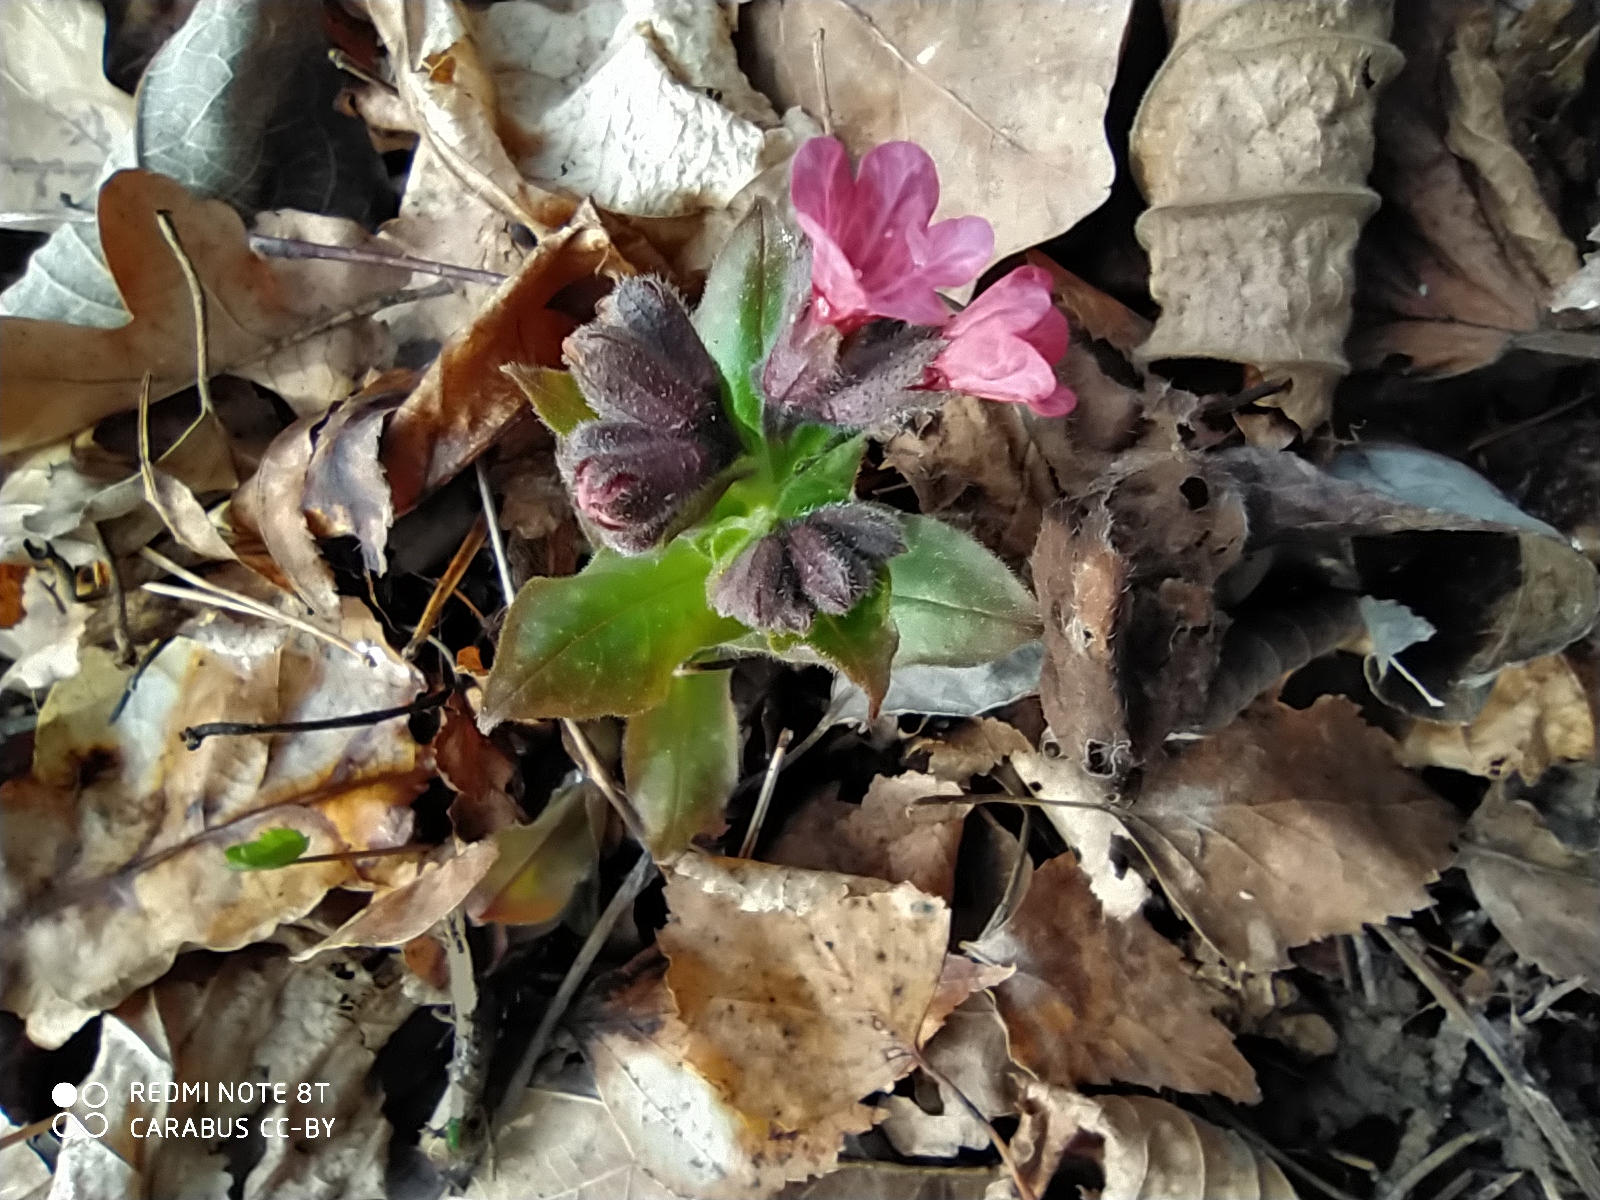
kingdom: Plantae
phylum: Tracheophyta
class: Magnoliopsida
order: Boraginales
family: Boraginaceae
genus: Pulmonaria
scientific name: Pulmonaria obscura
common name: Suffolk lungwort
